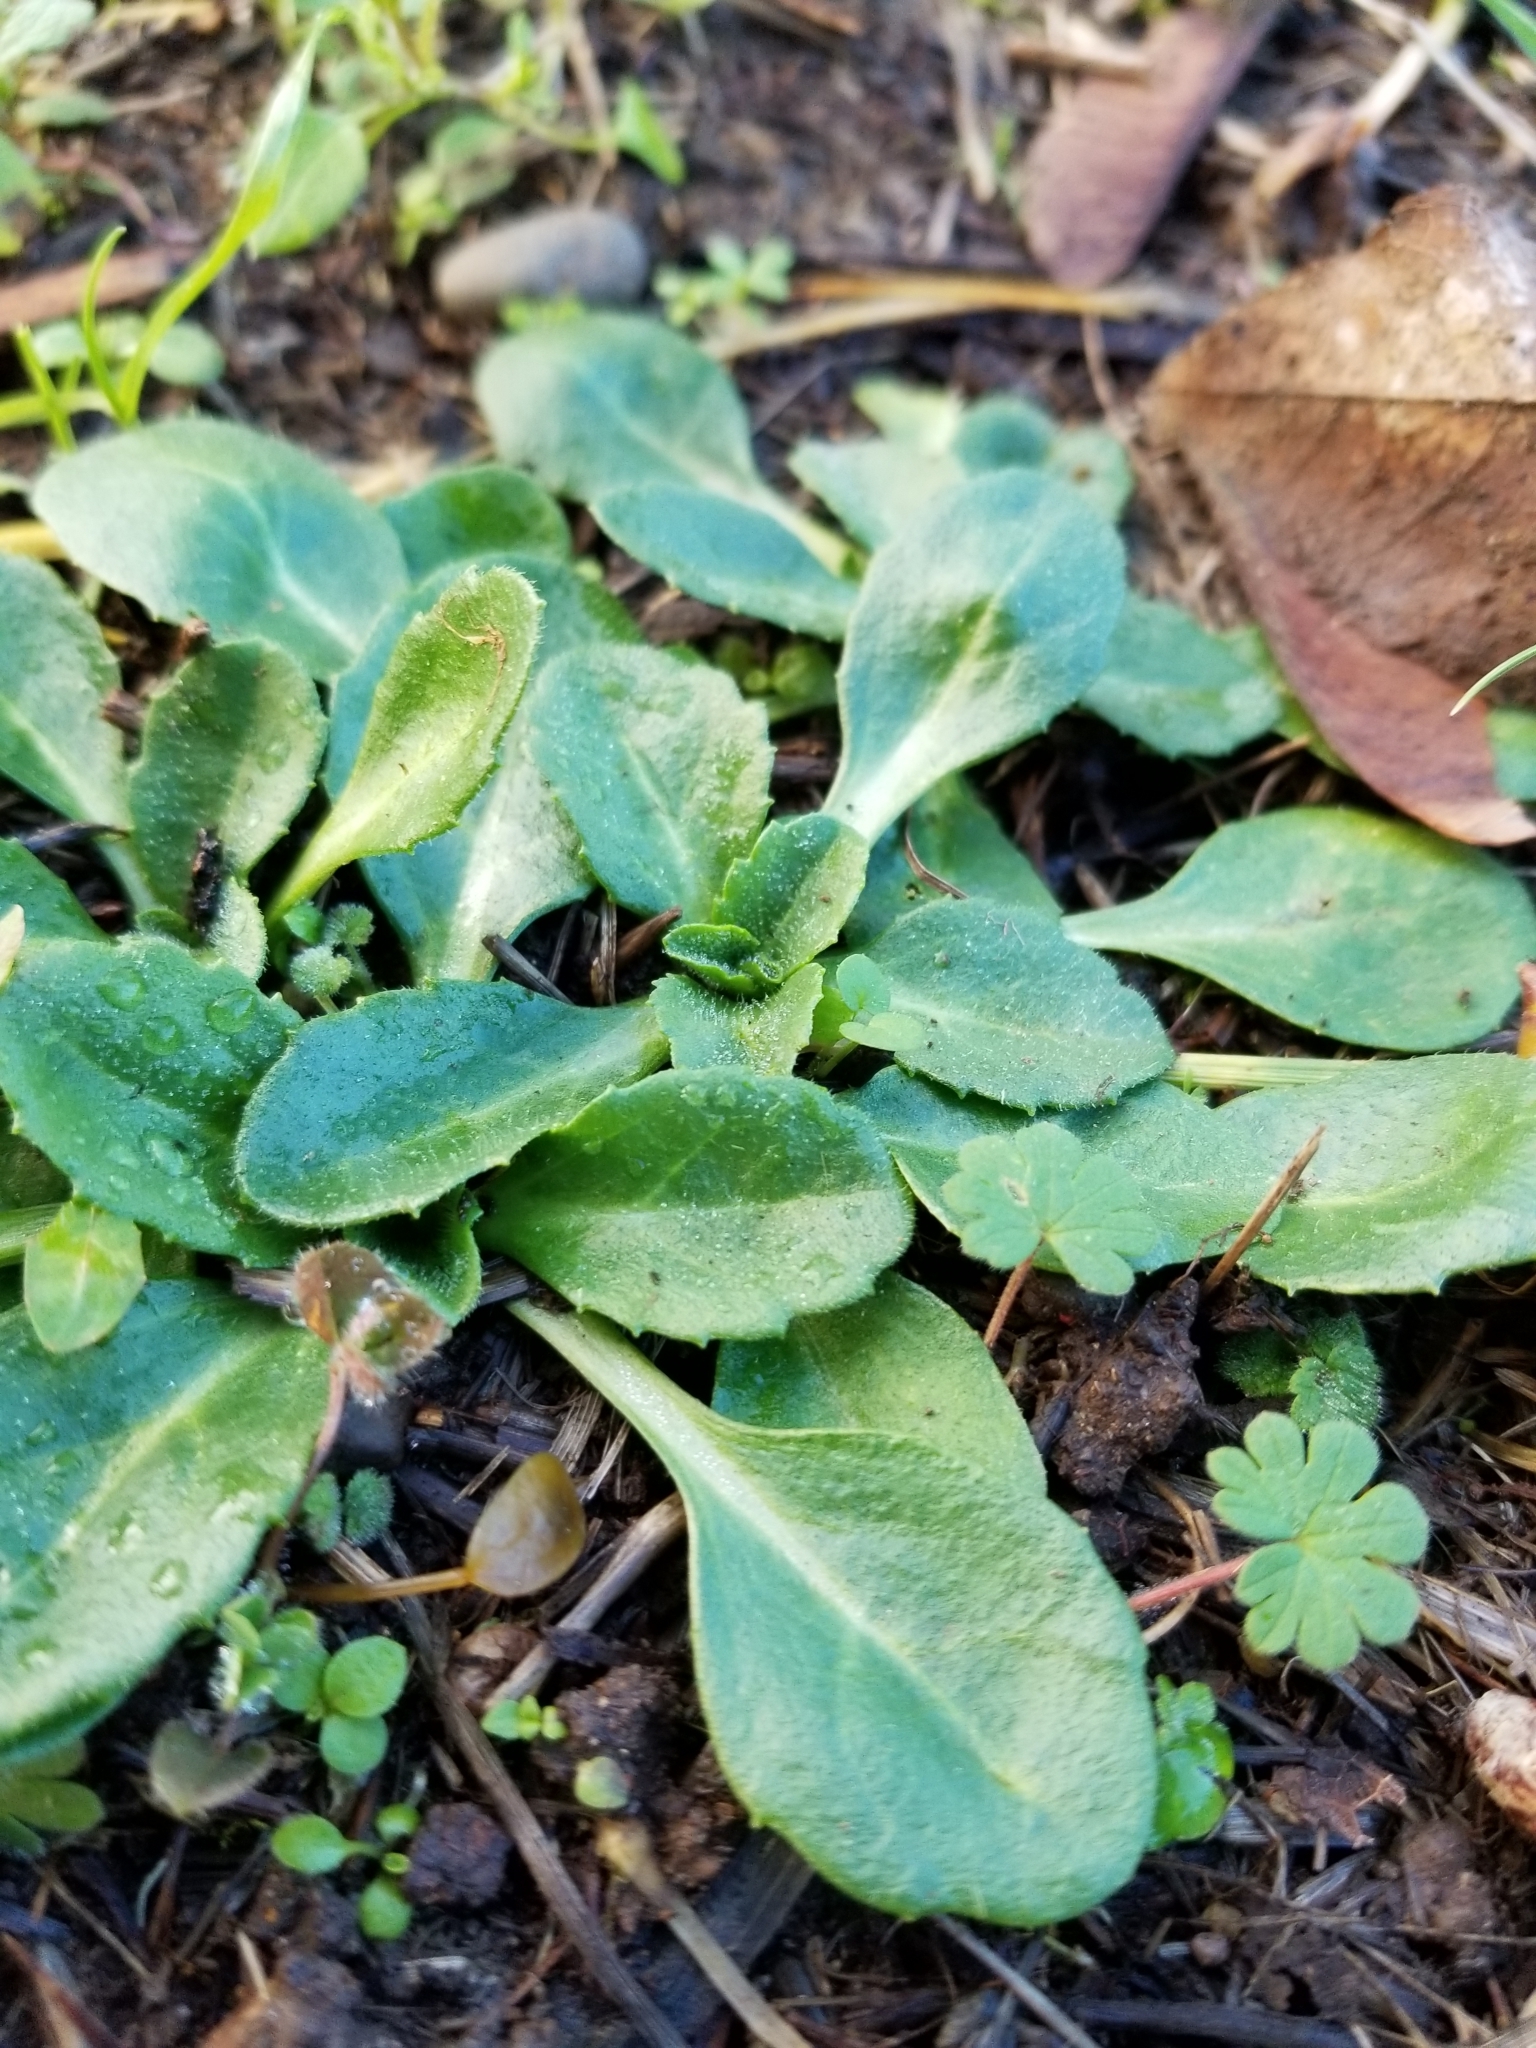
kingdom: Plantae
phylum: Tracheophyta
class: Magnoliopsida
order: Asterales
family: Asteraceae
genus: Bellis
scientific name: Bellis perennis
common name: Lawndaisy
